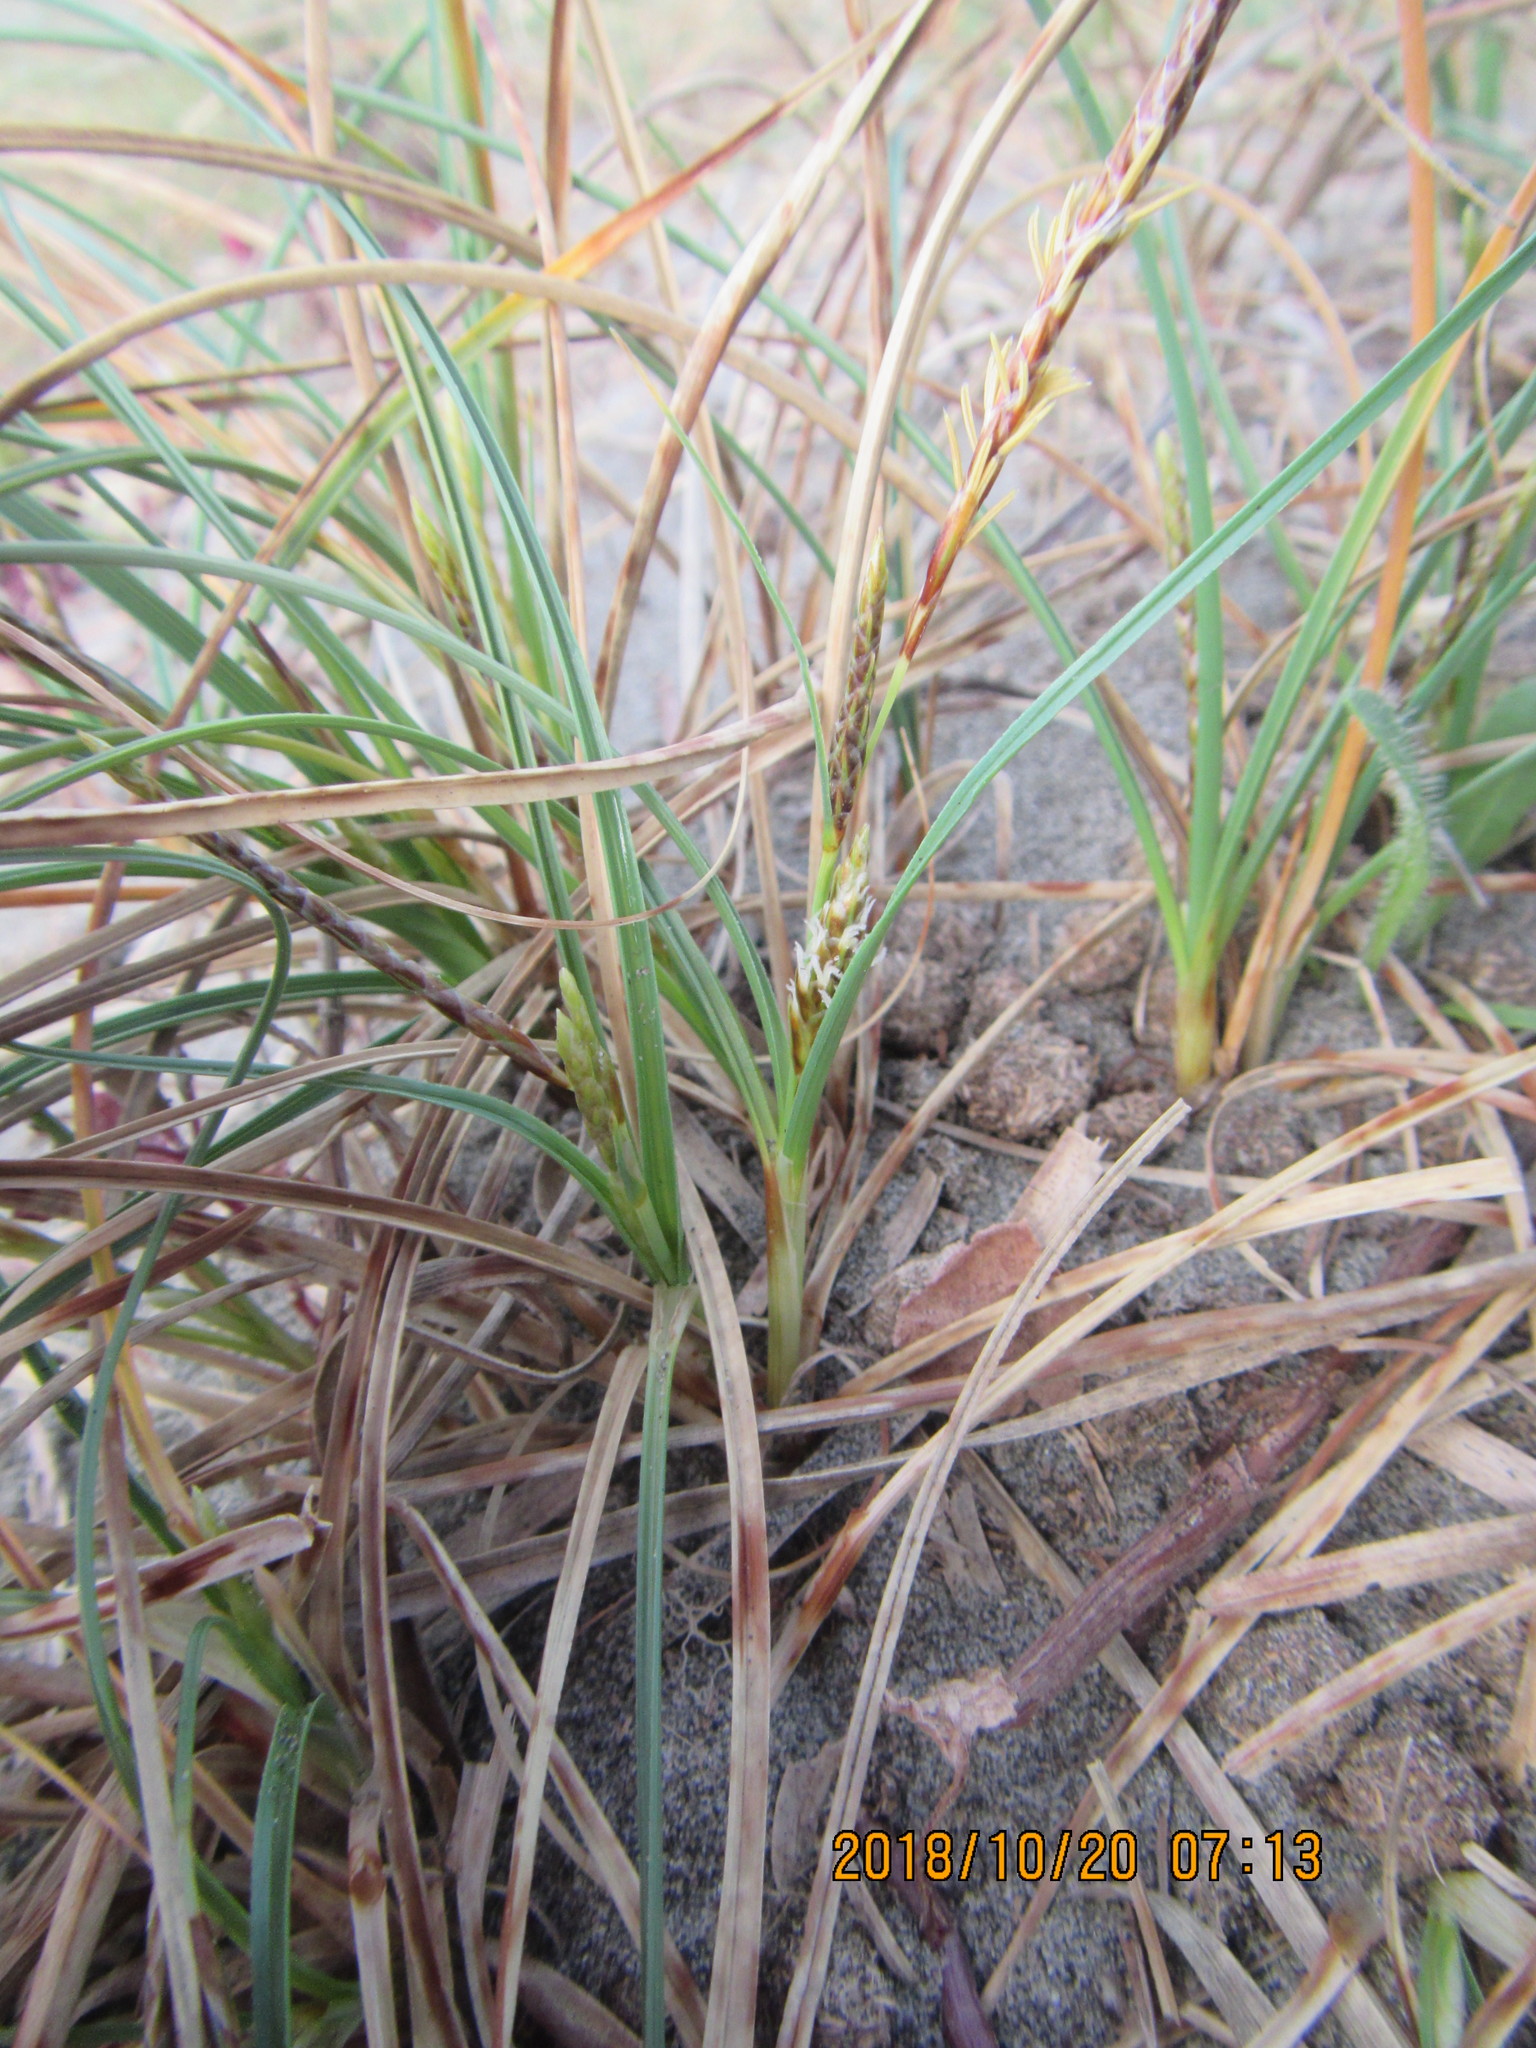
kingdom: Plantae
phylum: Tracheophyta
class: Liliopsida
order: Poales
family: Cyperaceae
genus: Carex
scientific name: Carex pumila
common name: Dwarf sedge
